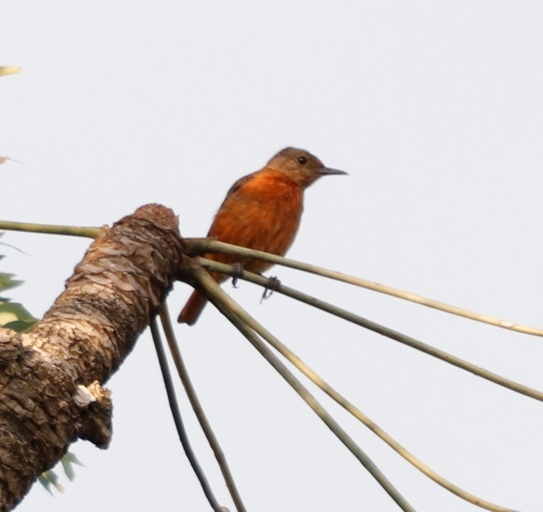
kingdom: Animalia
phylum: Chordata
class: Aves
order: Passeriformes
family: Muscicapidae
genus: Monticola
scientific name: Monticola rupestris
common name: Cape rock thrush
